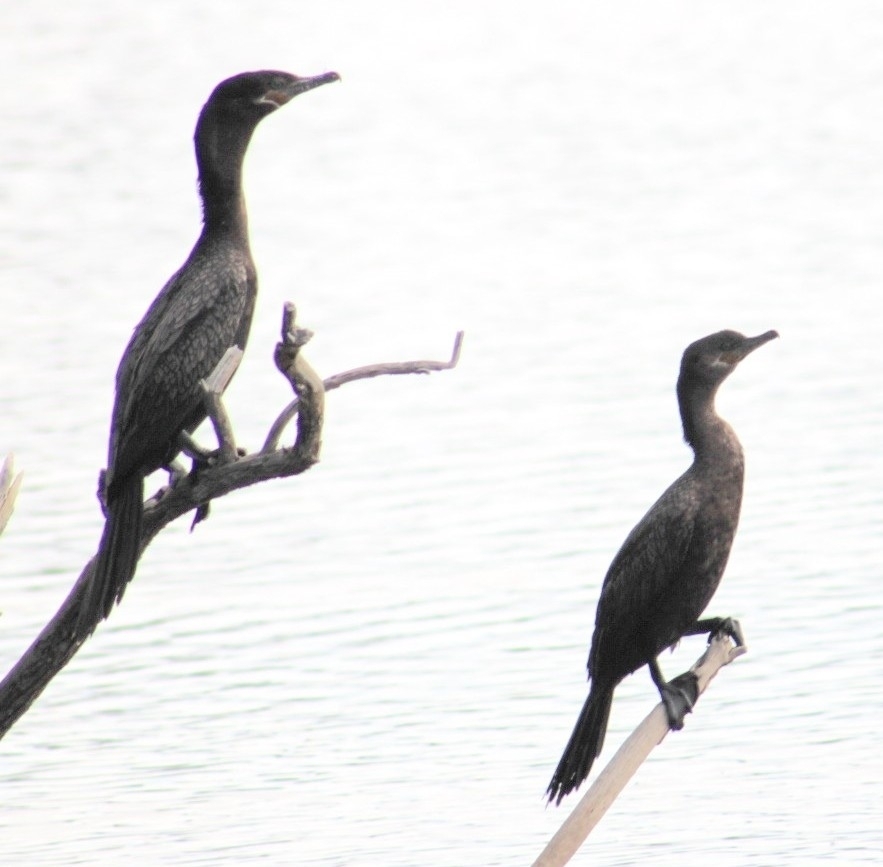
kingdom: Animalia
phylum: Chordata
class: Aves
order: Suliformes
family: Phalacrocoracidae
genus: Phalacrocorax
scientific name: Phalacrocorax brasilianus
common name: Neotropic cormorant
